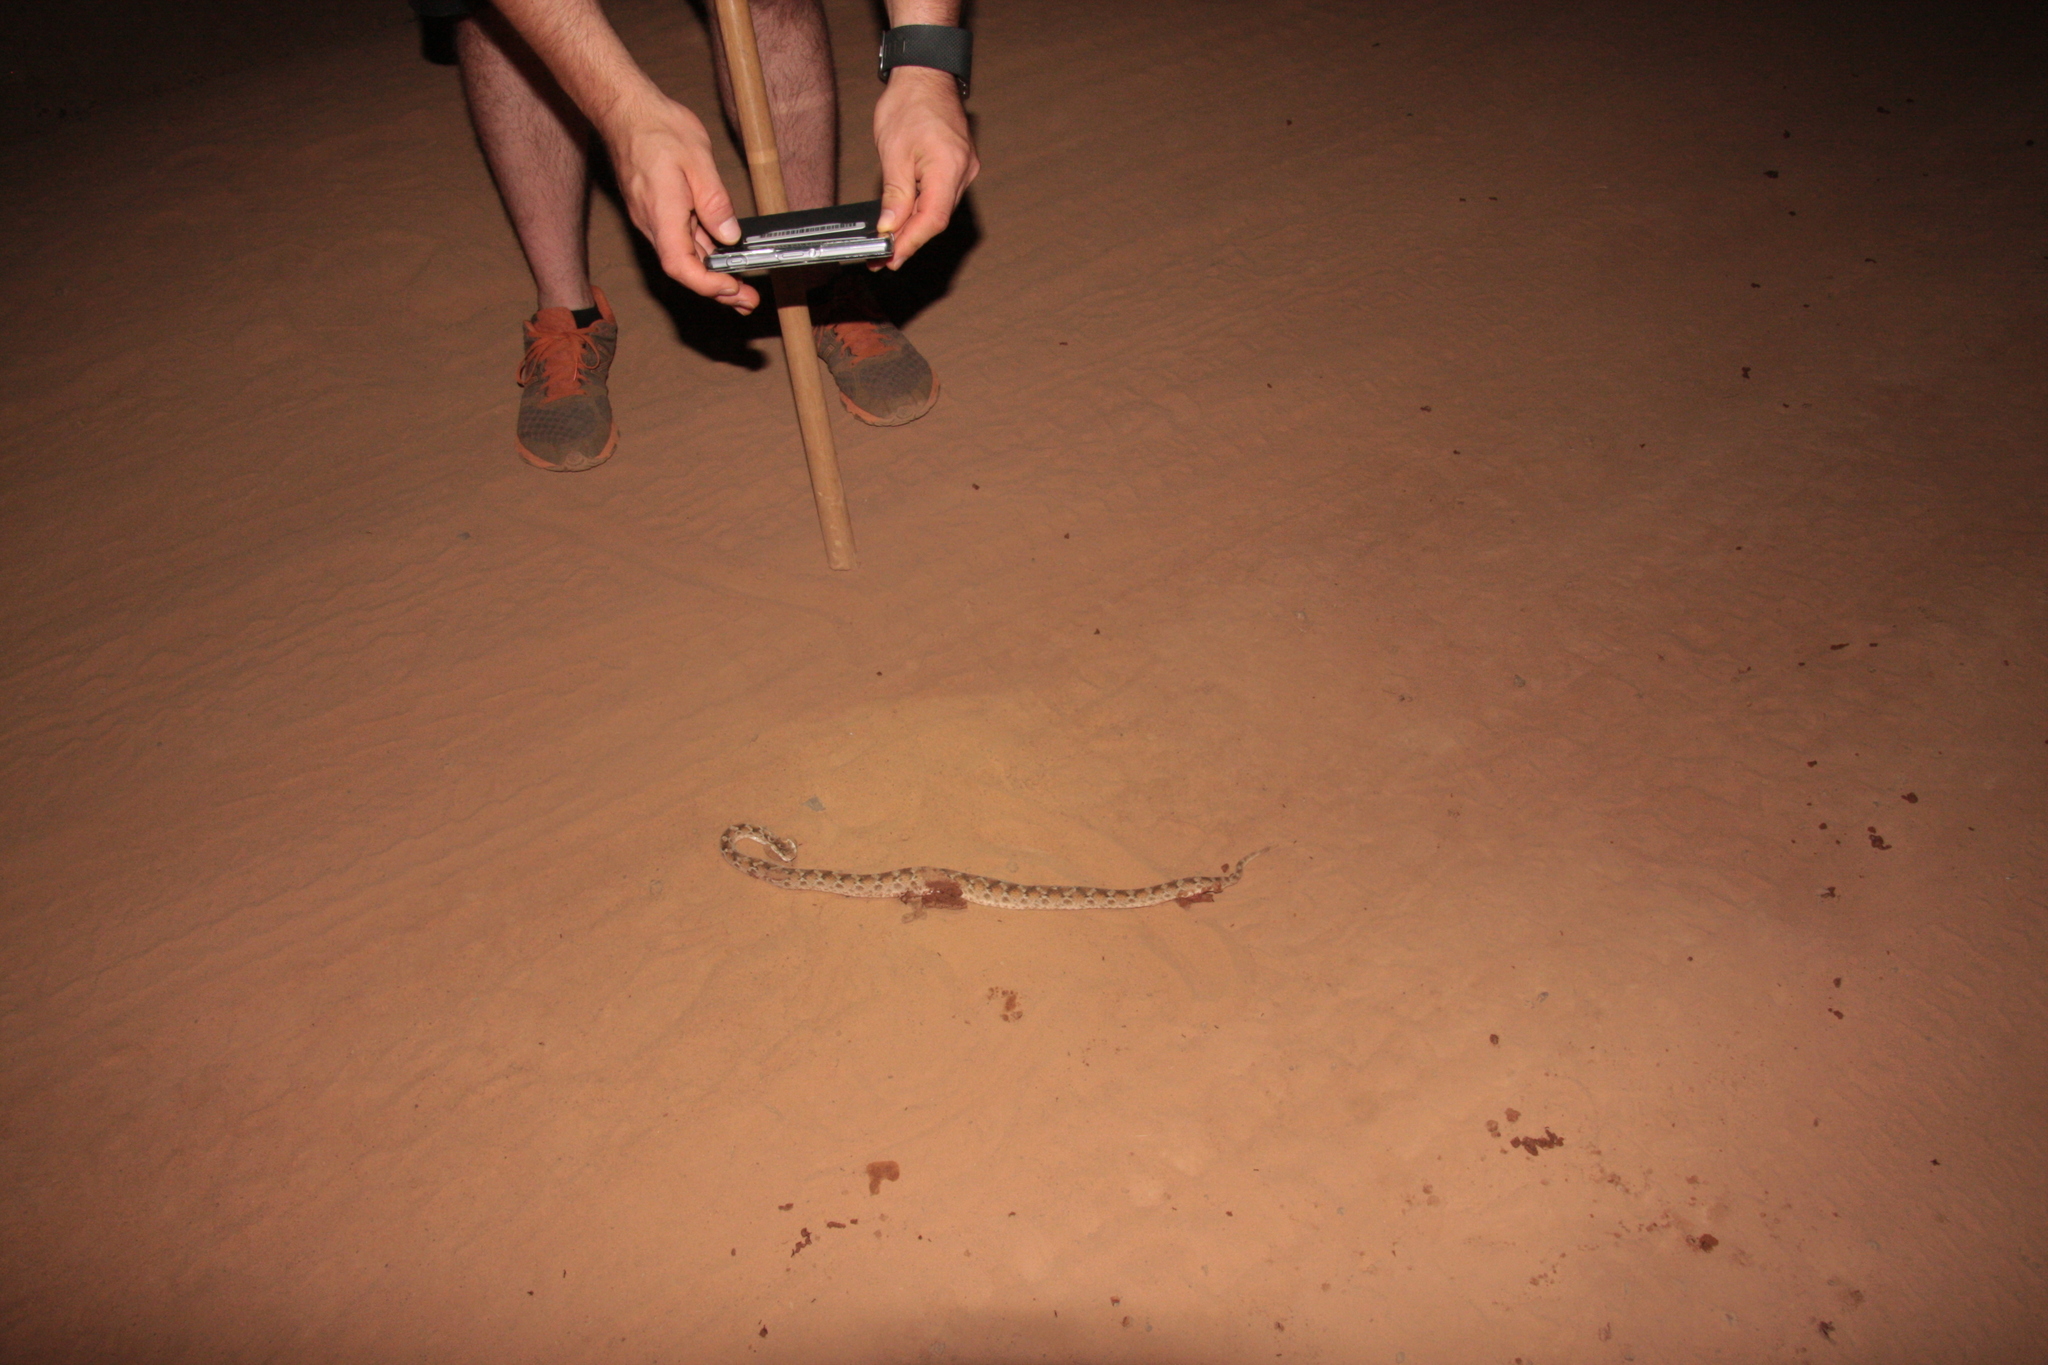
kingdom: Animalia
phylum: Chordata
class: Squamata
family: Viperidae
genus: Echis
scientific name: Echis leucogaster
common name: White-bellied carpet viper
